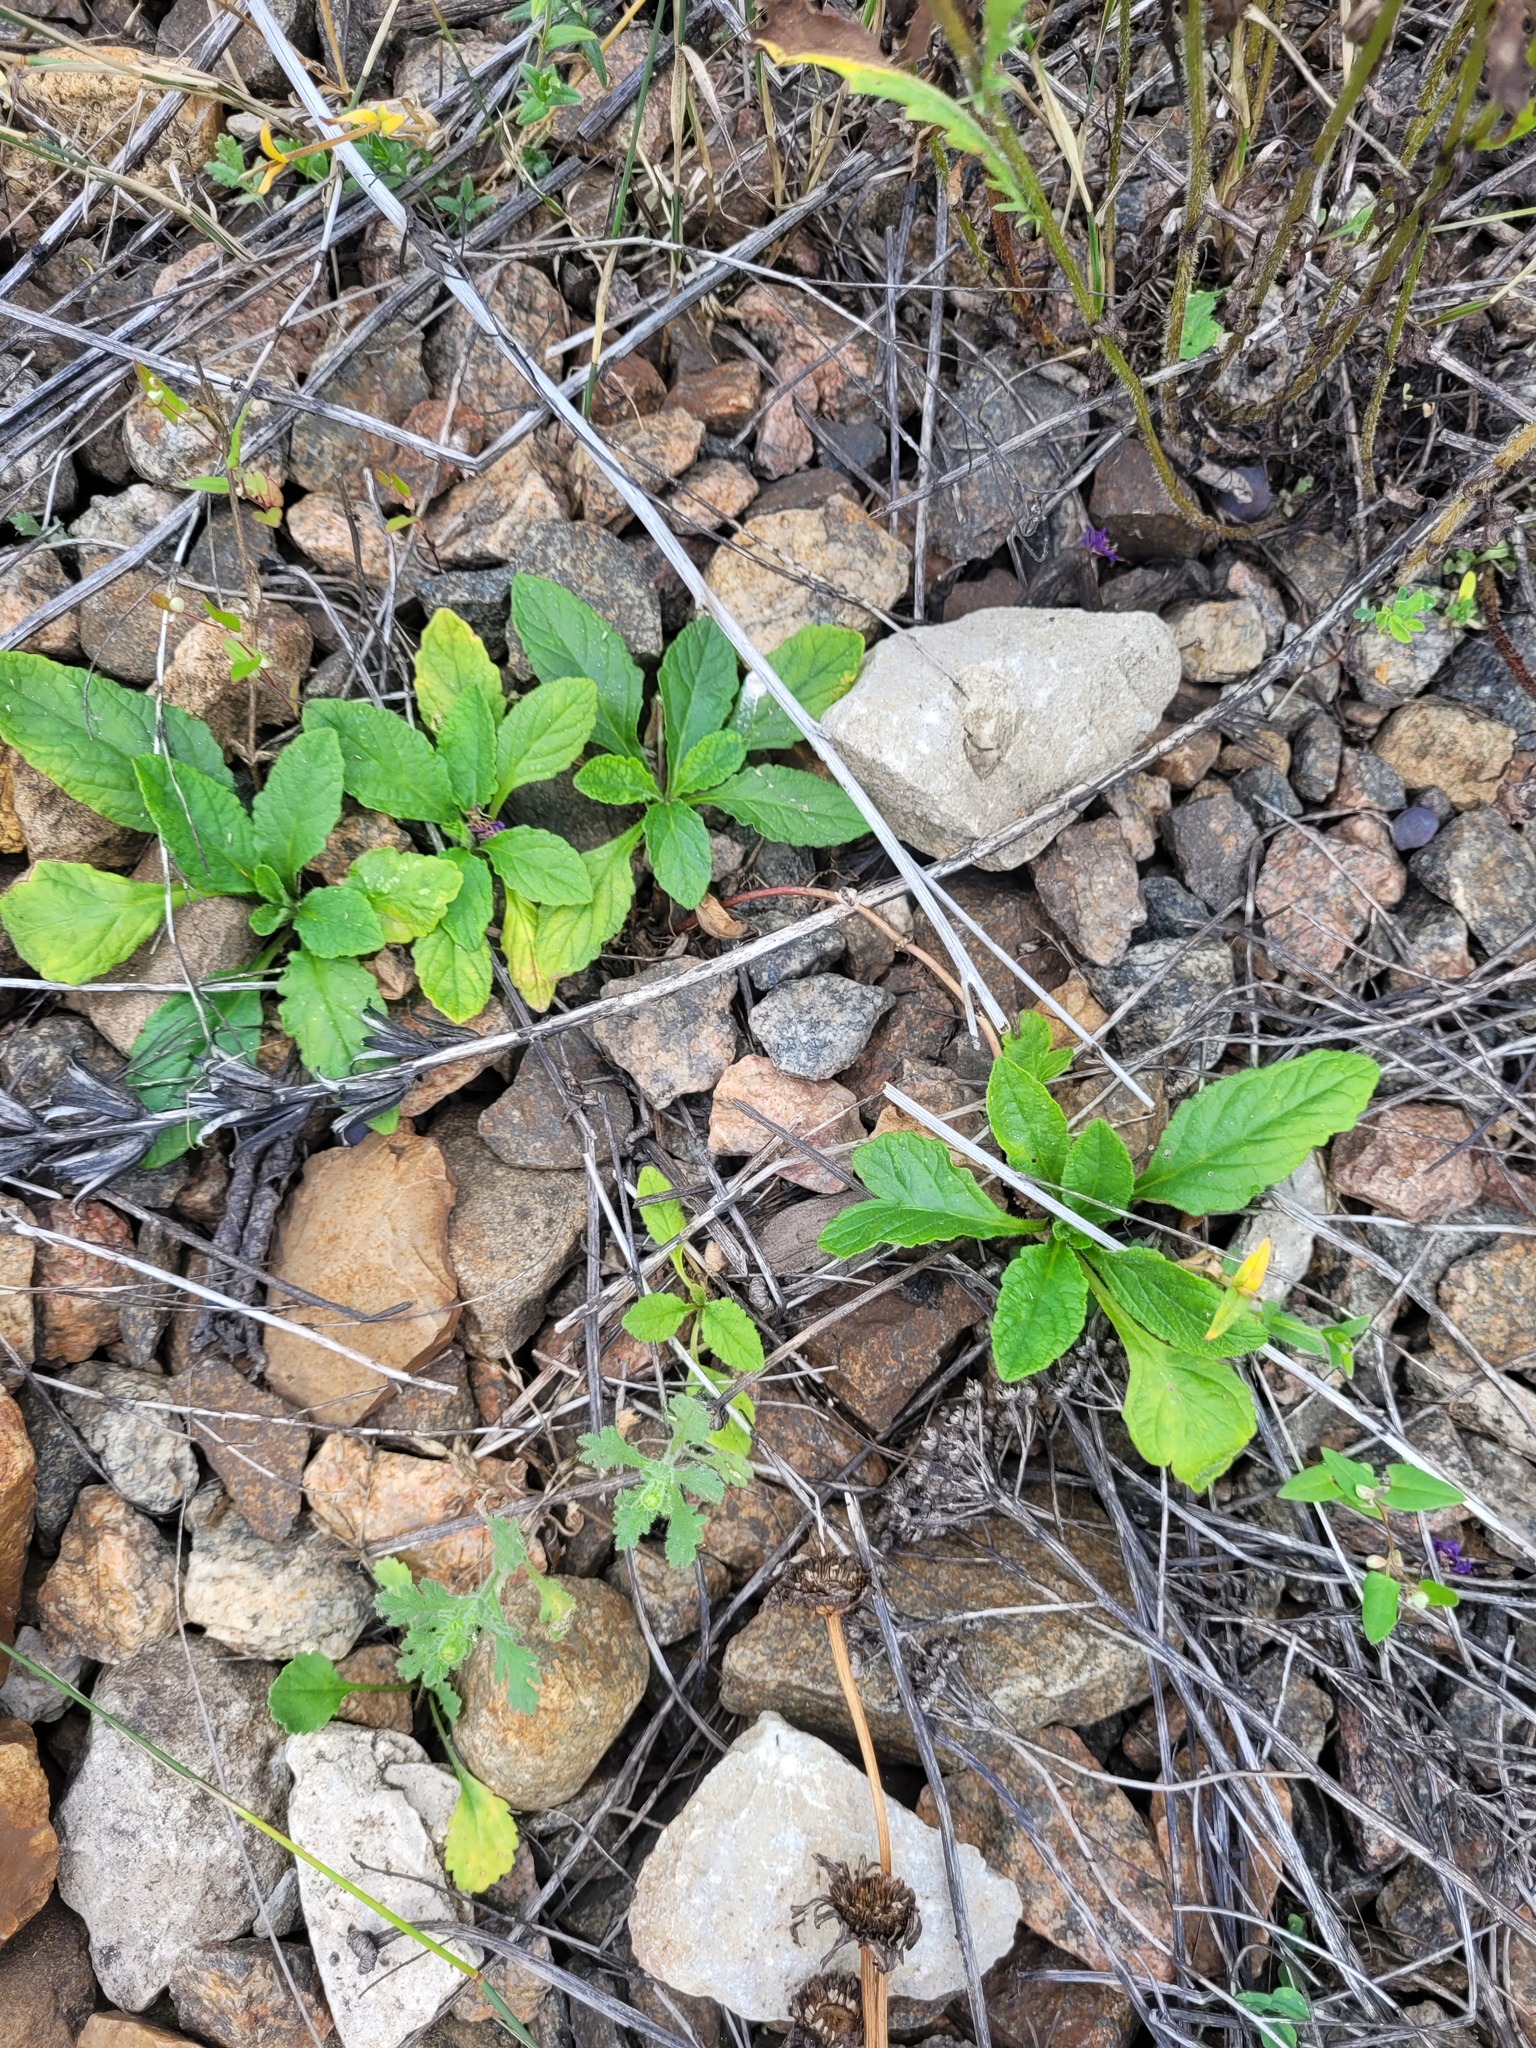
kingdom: Plantae
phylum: Tracheophyta
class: Magnoliopsida
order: Lamiales
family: Lamiaceae
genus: Ajuga
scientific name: Ajuga reptans
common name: Bugle
